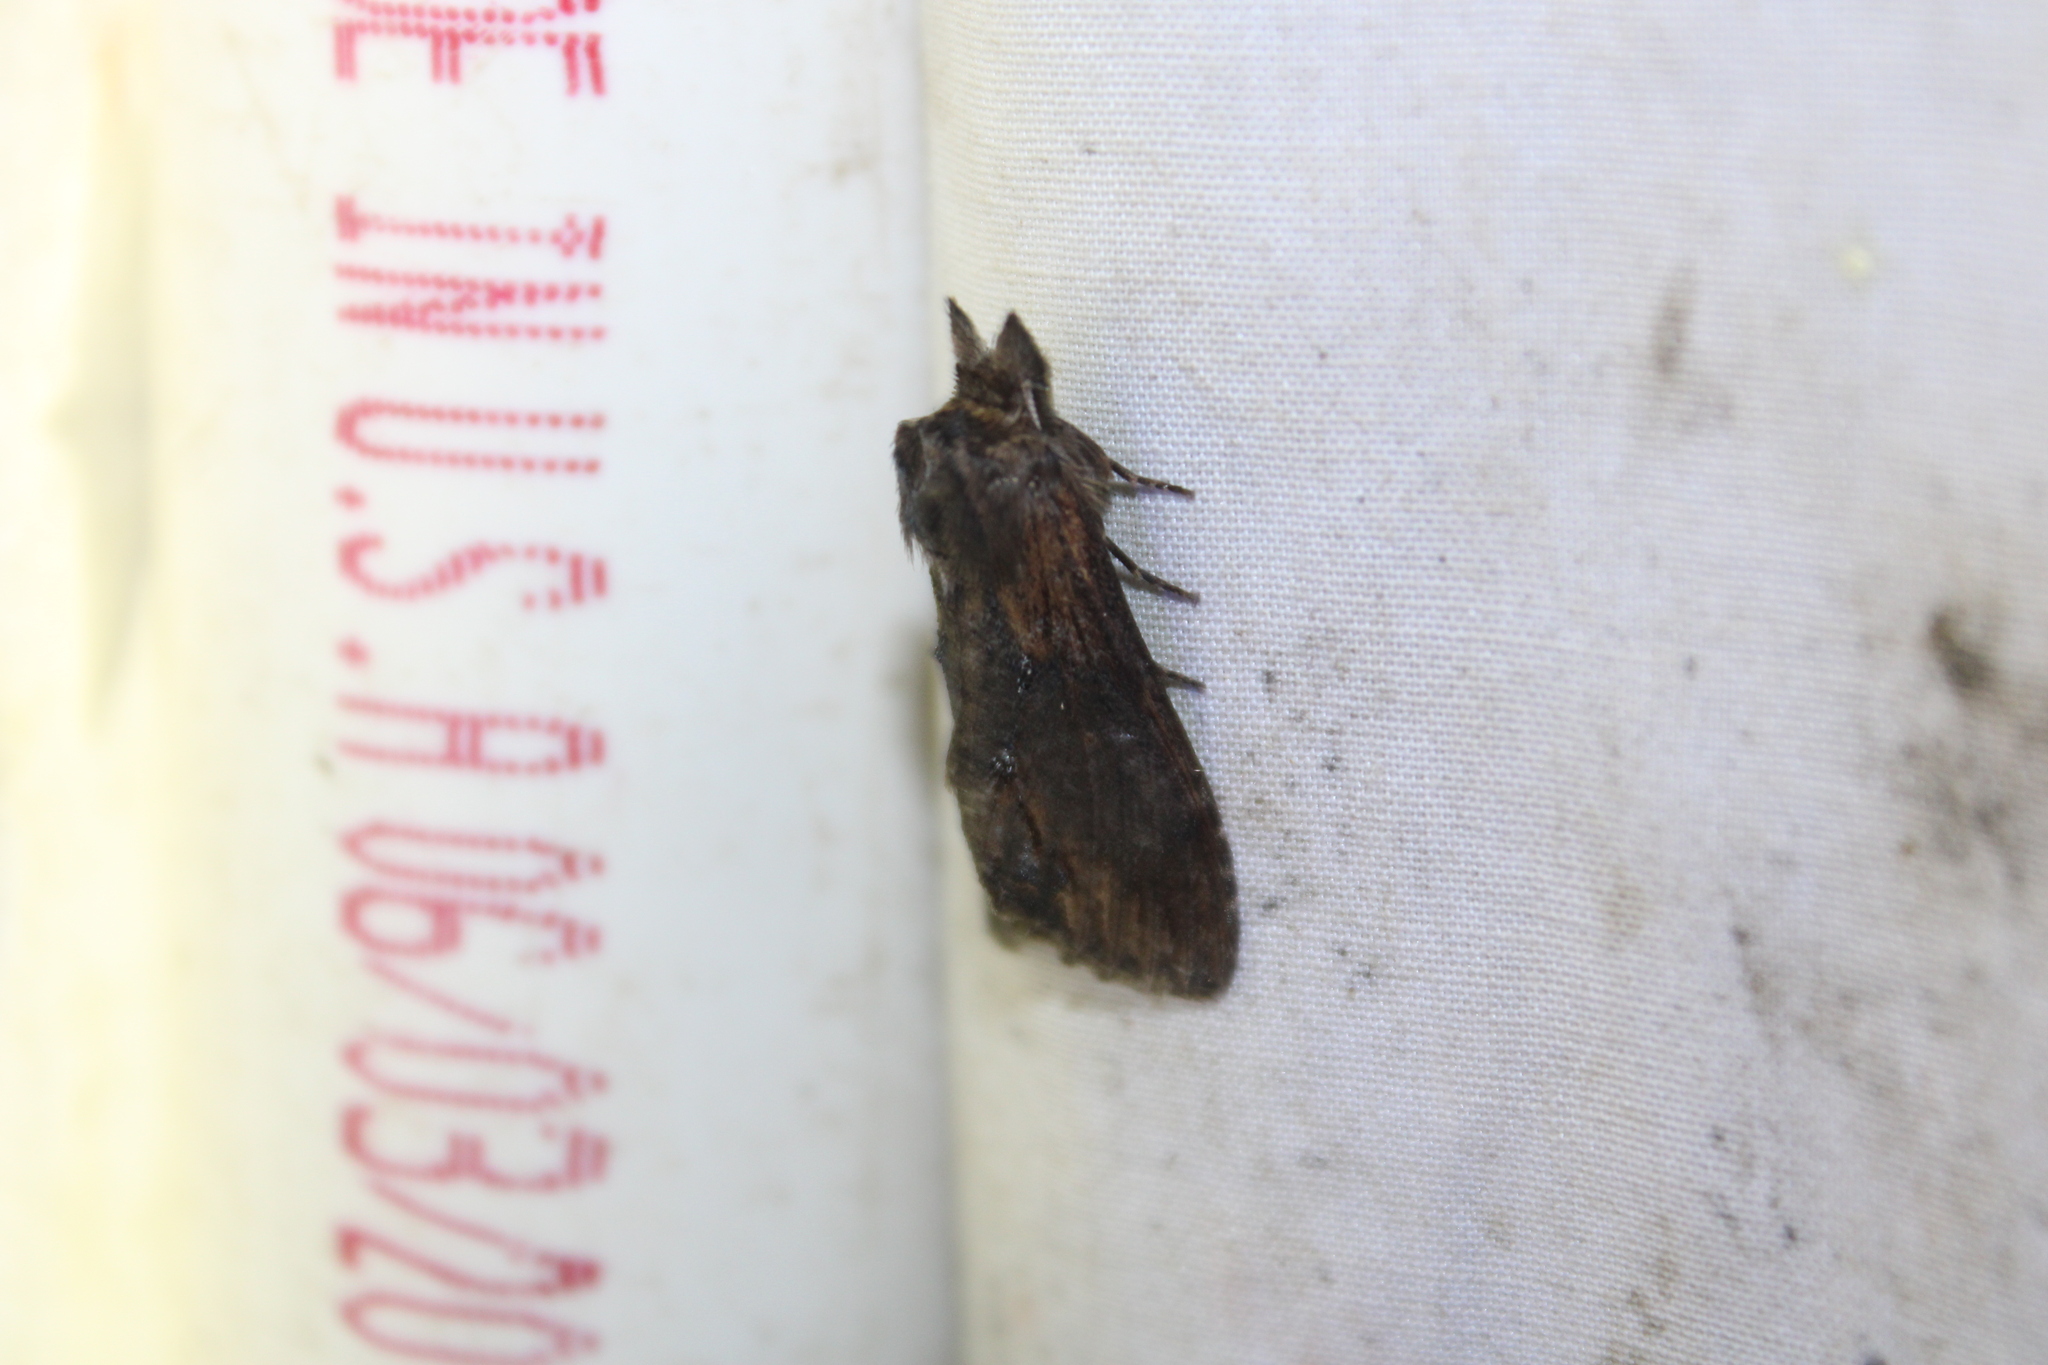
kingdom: Animalia
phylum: Arthropoda
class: Insecta
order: Lepidoptera
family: Notodontidae
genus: Dasylophia
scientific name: Dasylophia thyatiroides
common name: Gray-patched prominent
